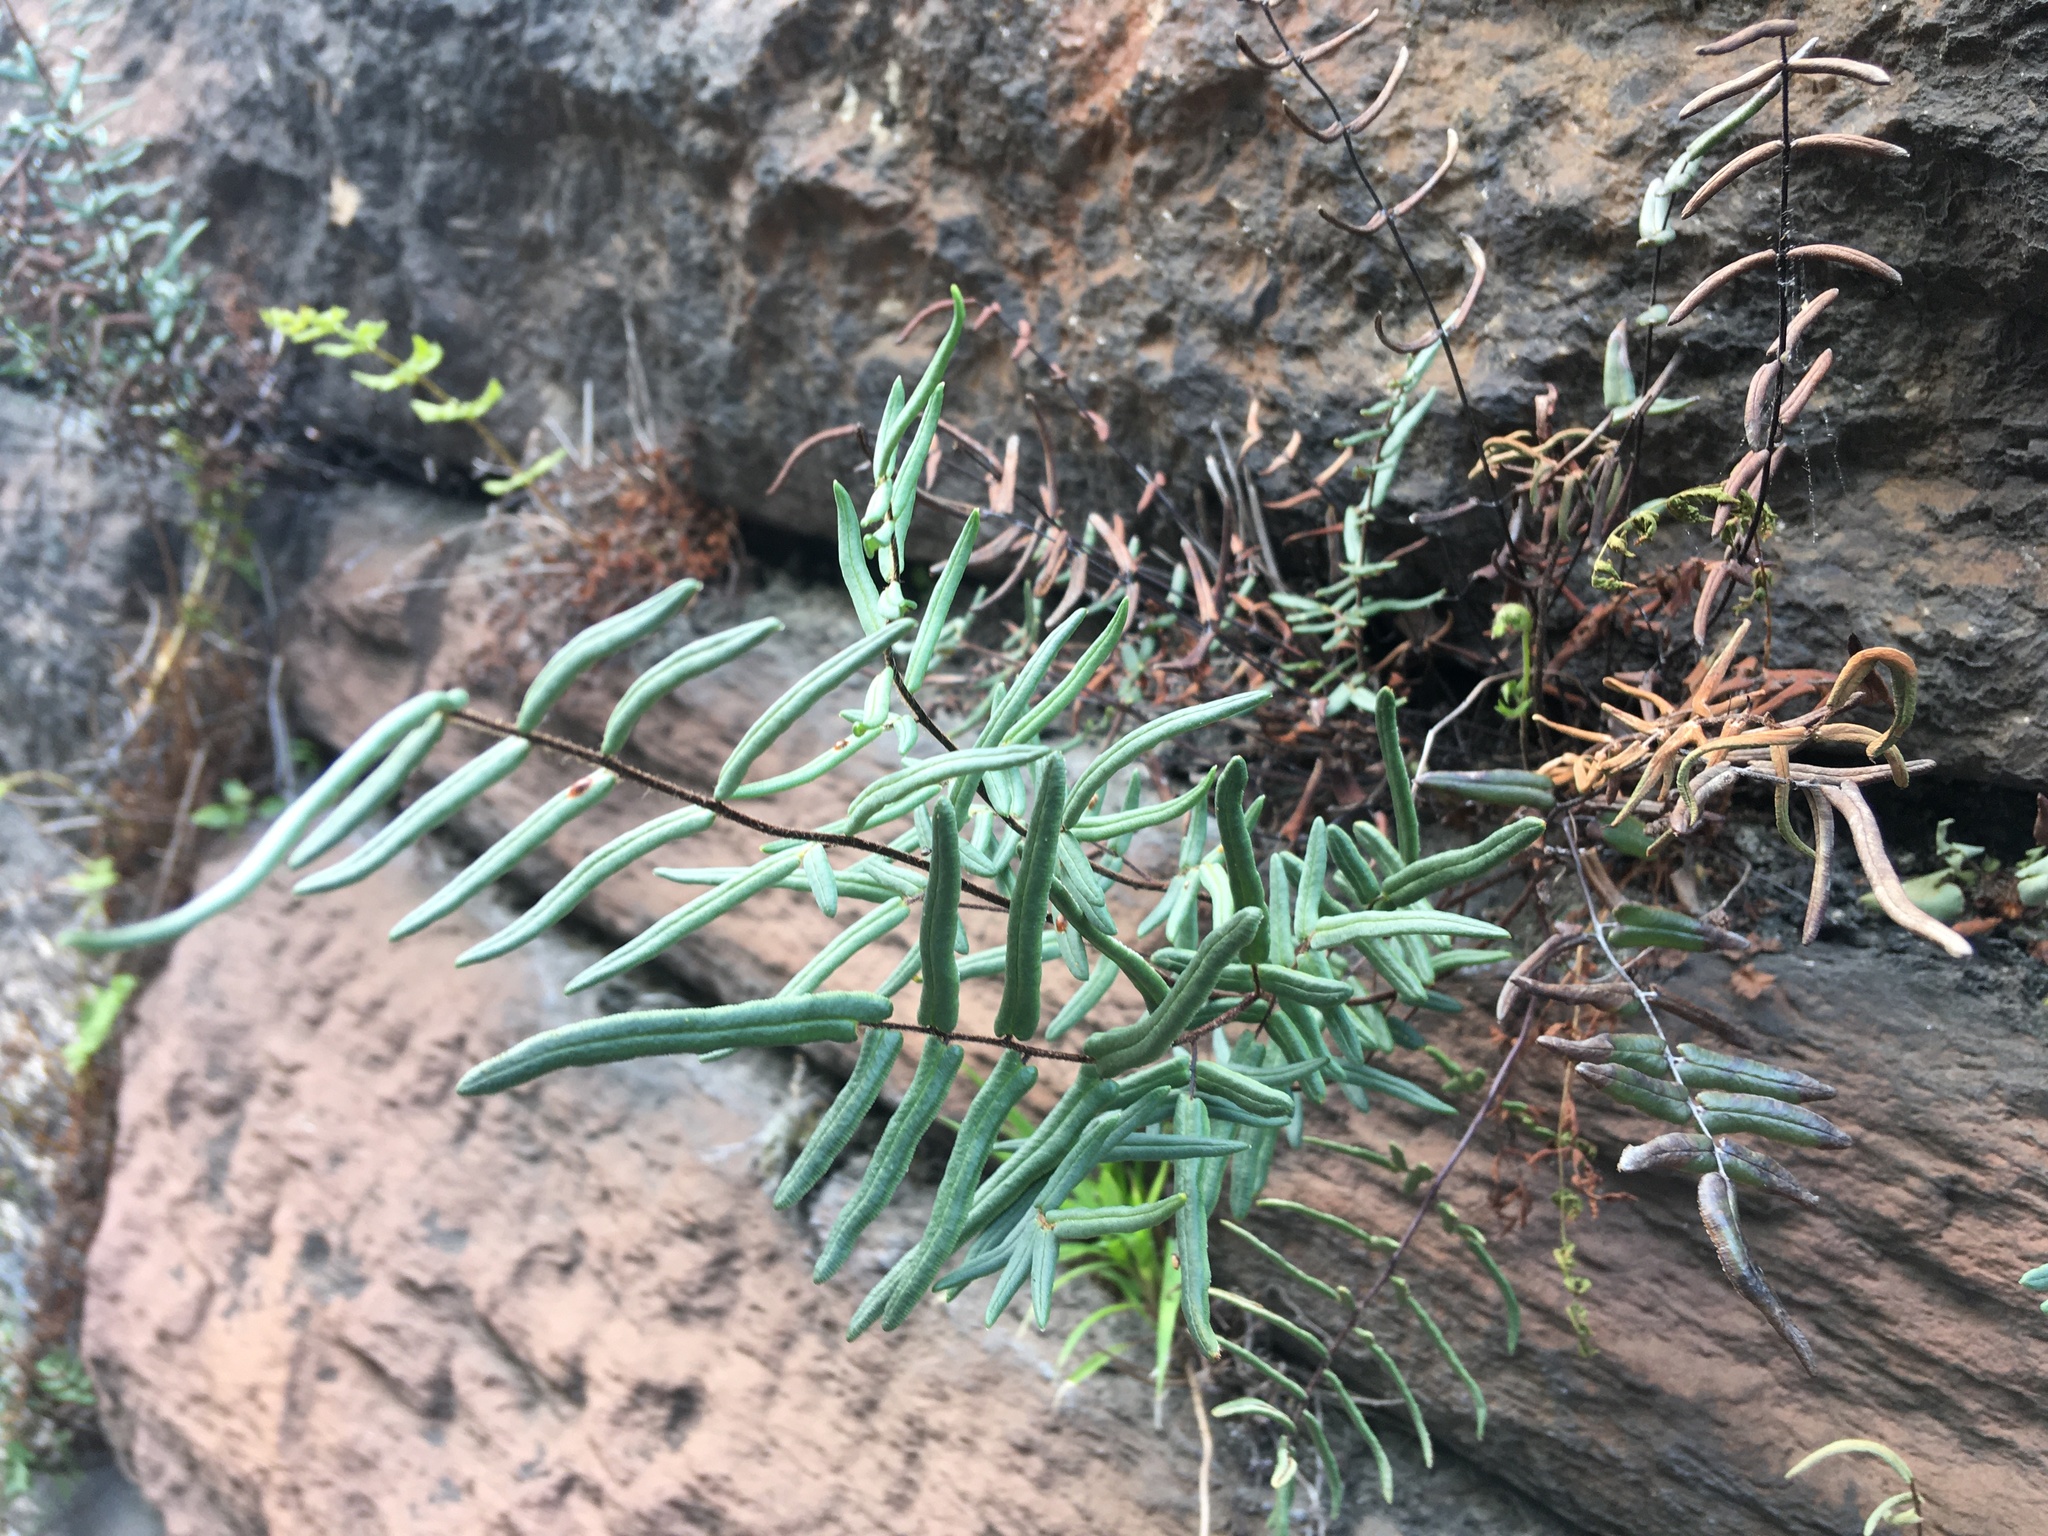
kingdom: Plantae
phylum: Tracheophyta
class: Polypodiopsida
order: Polypodiales
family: Pteridaceae
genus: Pellaea
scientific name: Pellaea atropurpurea
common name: Hairy cliffbrake
